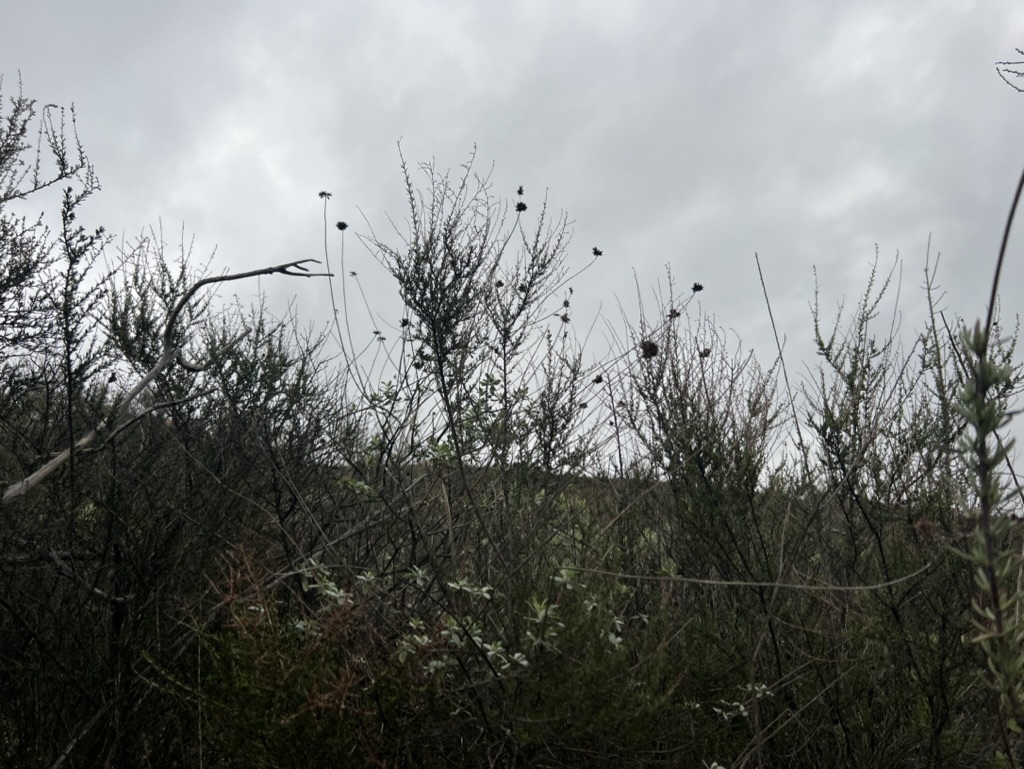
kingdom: Plantae
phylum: Tracheophyta
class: Magnoliopsida
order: Lamiales
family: Lamiaceae
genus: Salvia
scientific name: Salvia clevelandii
